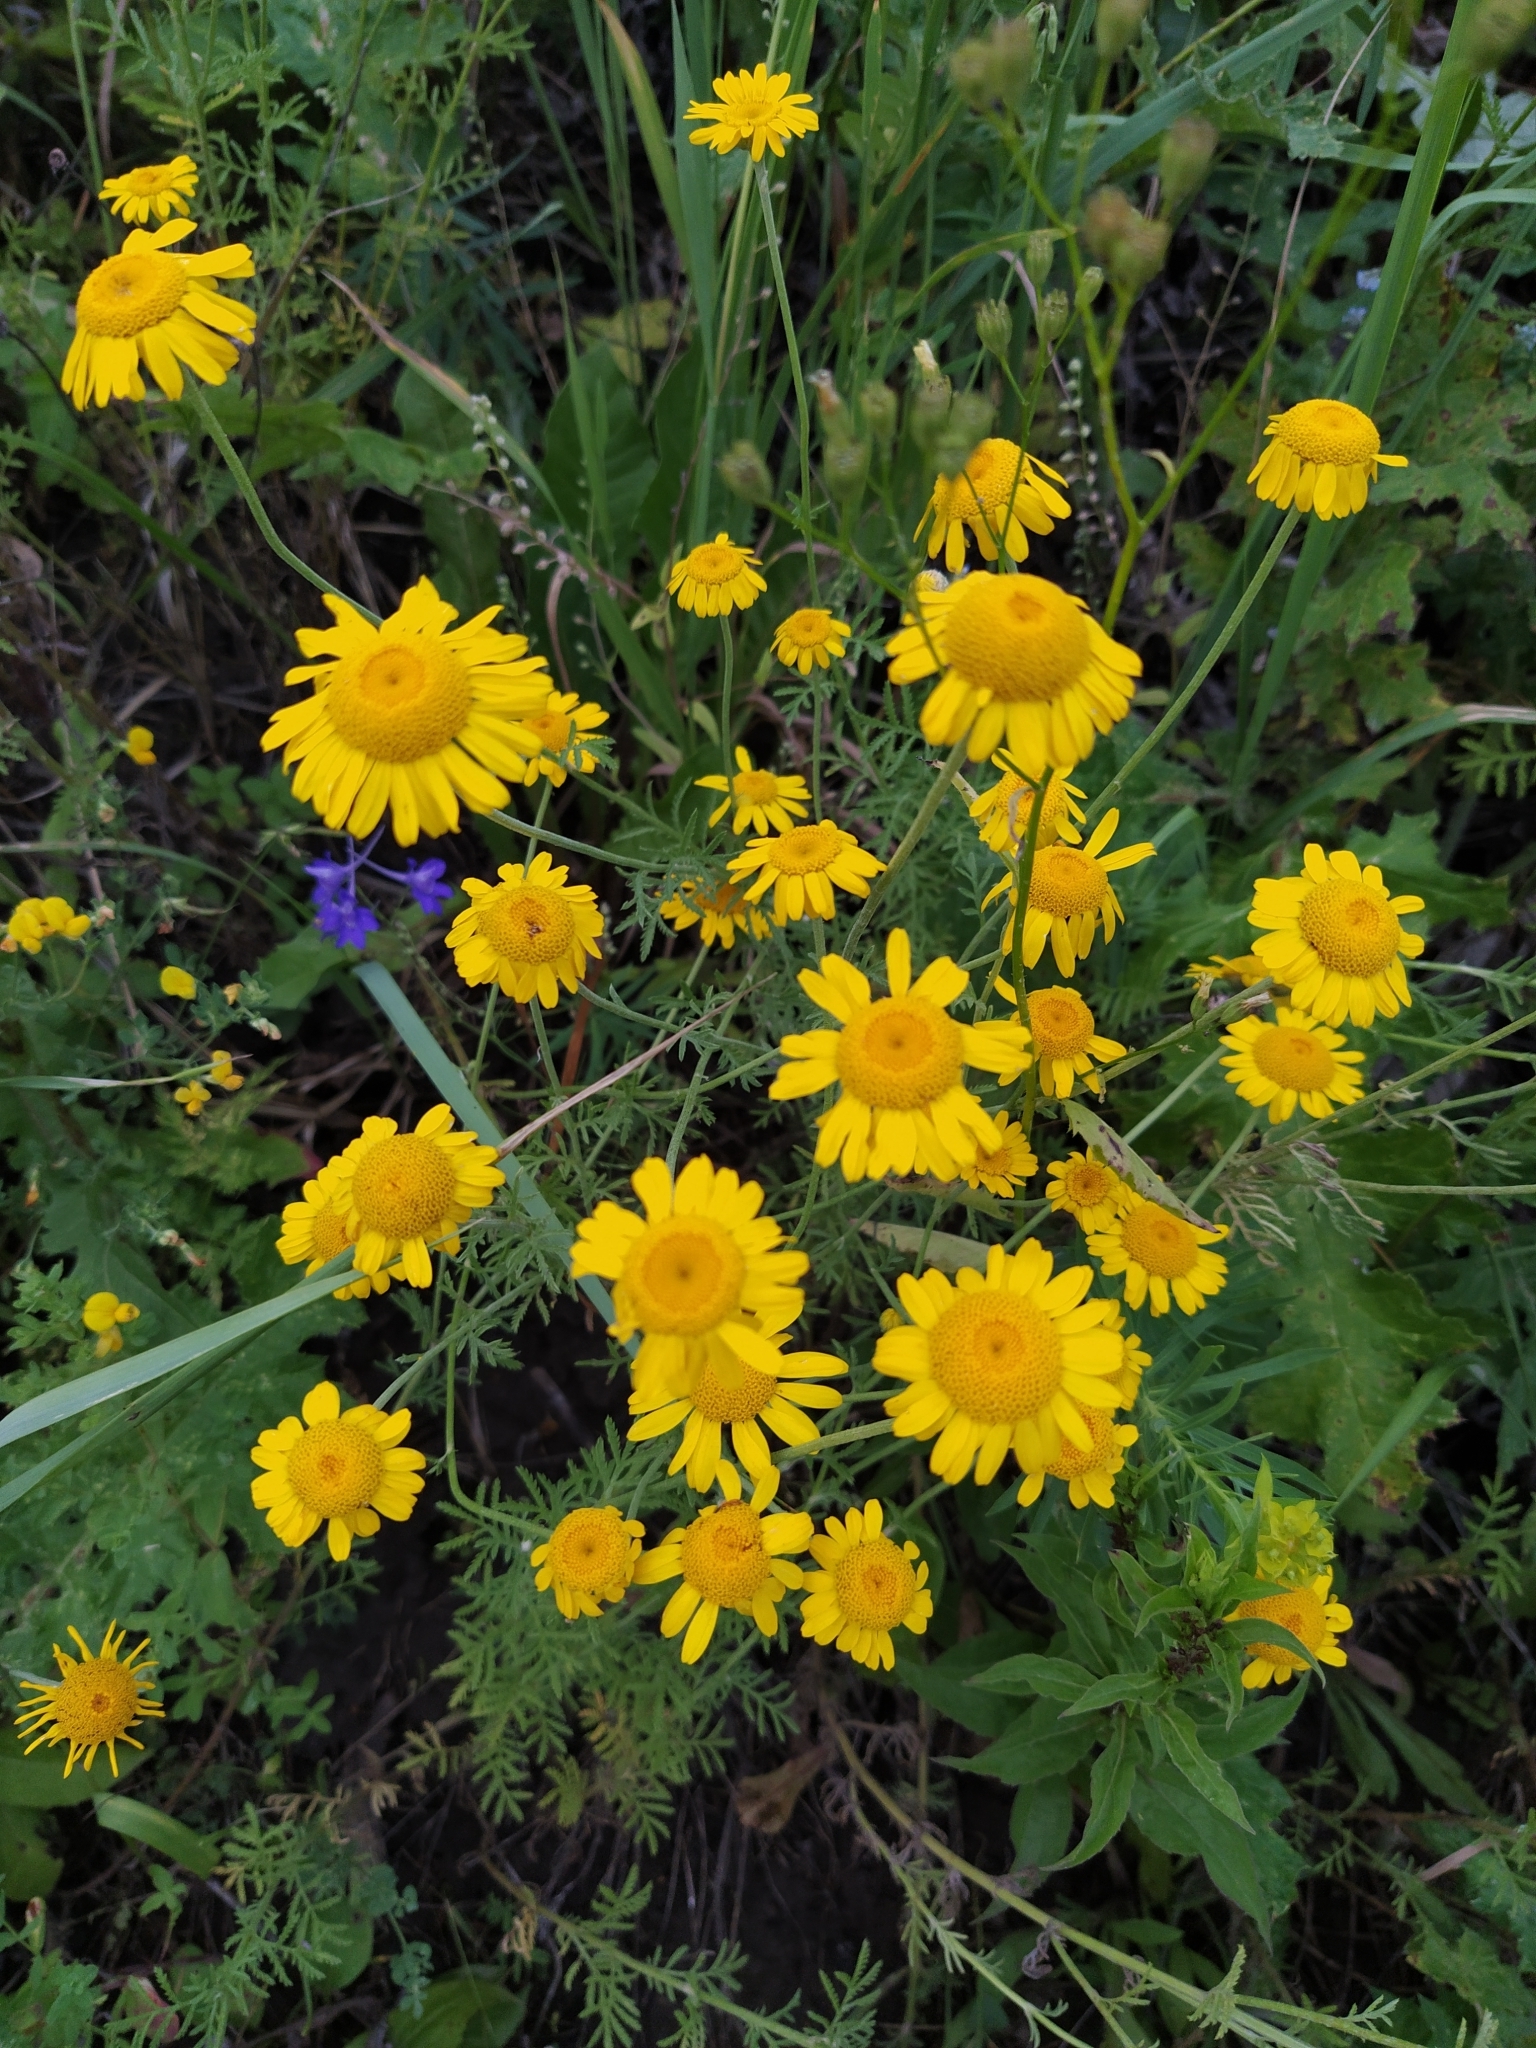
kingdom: Plantae
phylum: Tracheophyta
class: Magnoliopsida
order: Asterales
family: Asteraceae
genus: Cota
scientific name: Cota tinctoria
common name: Golden chamomile
